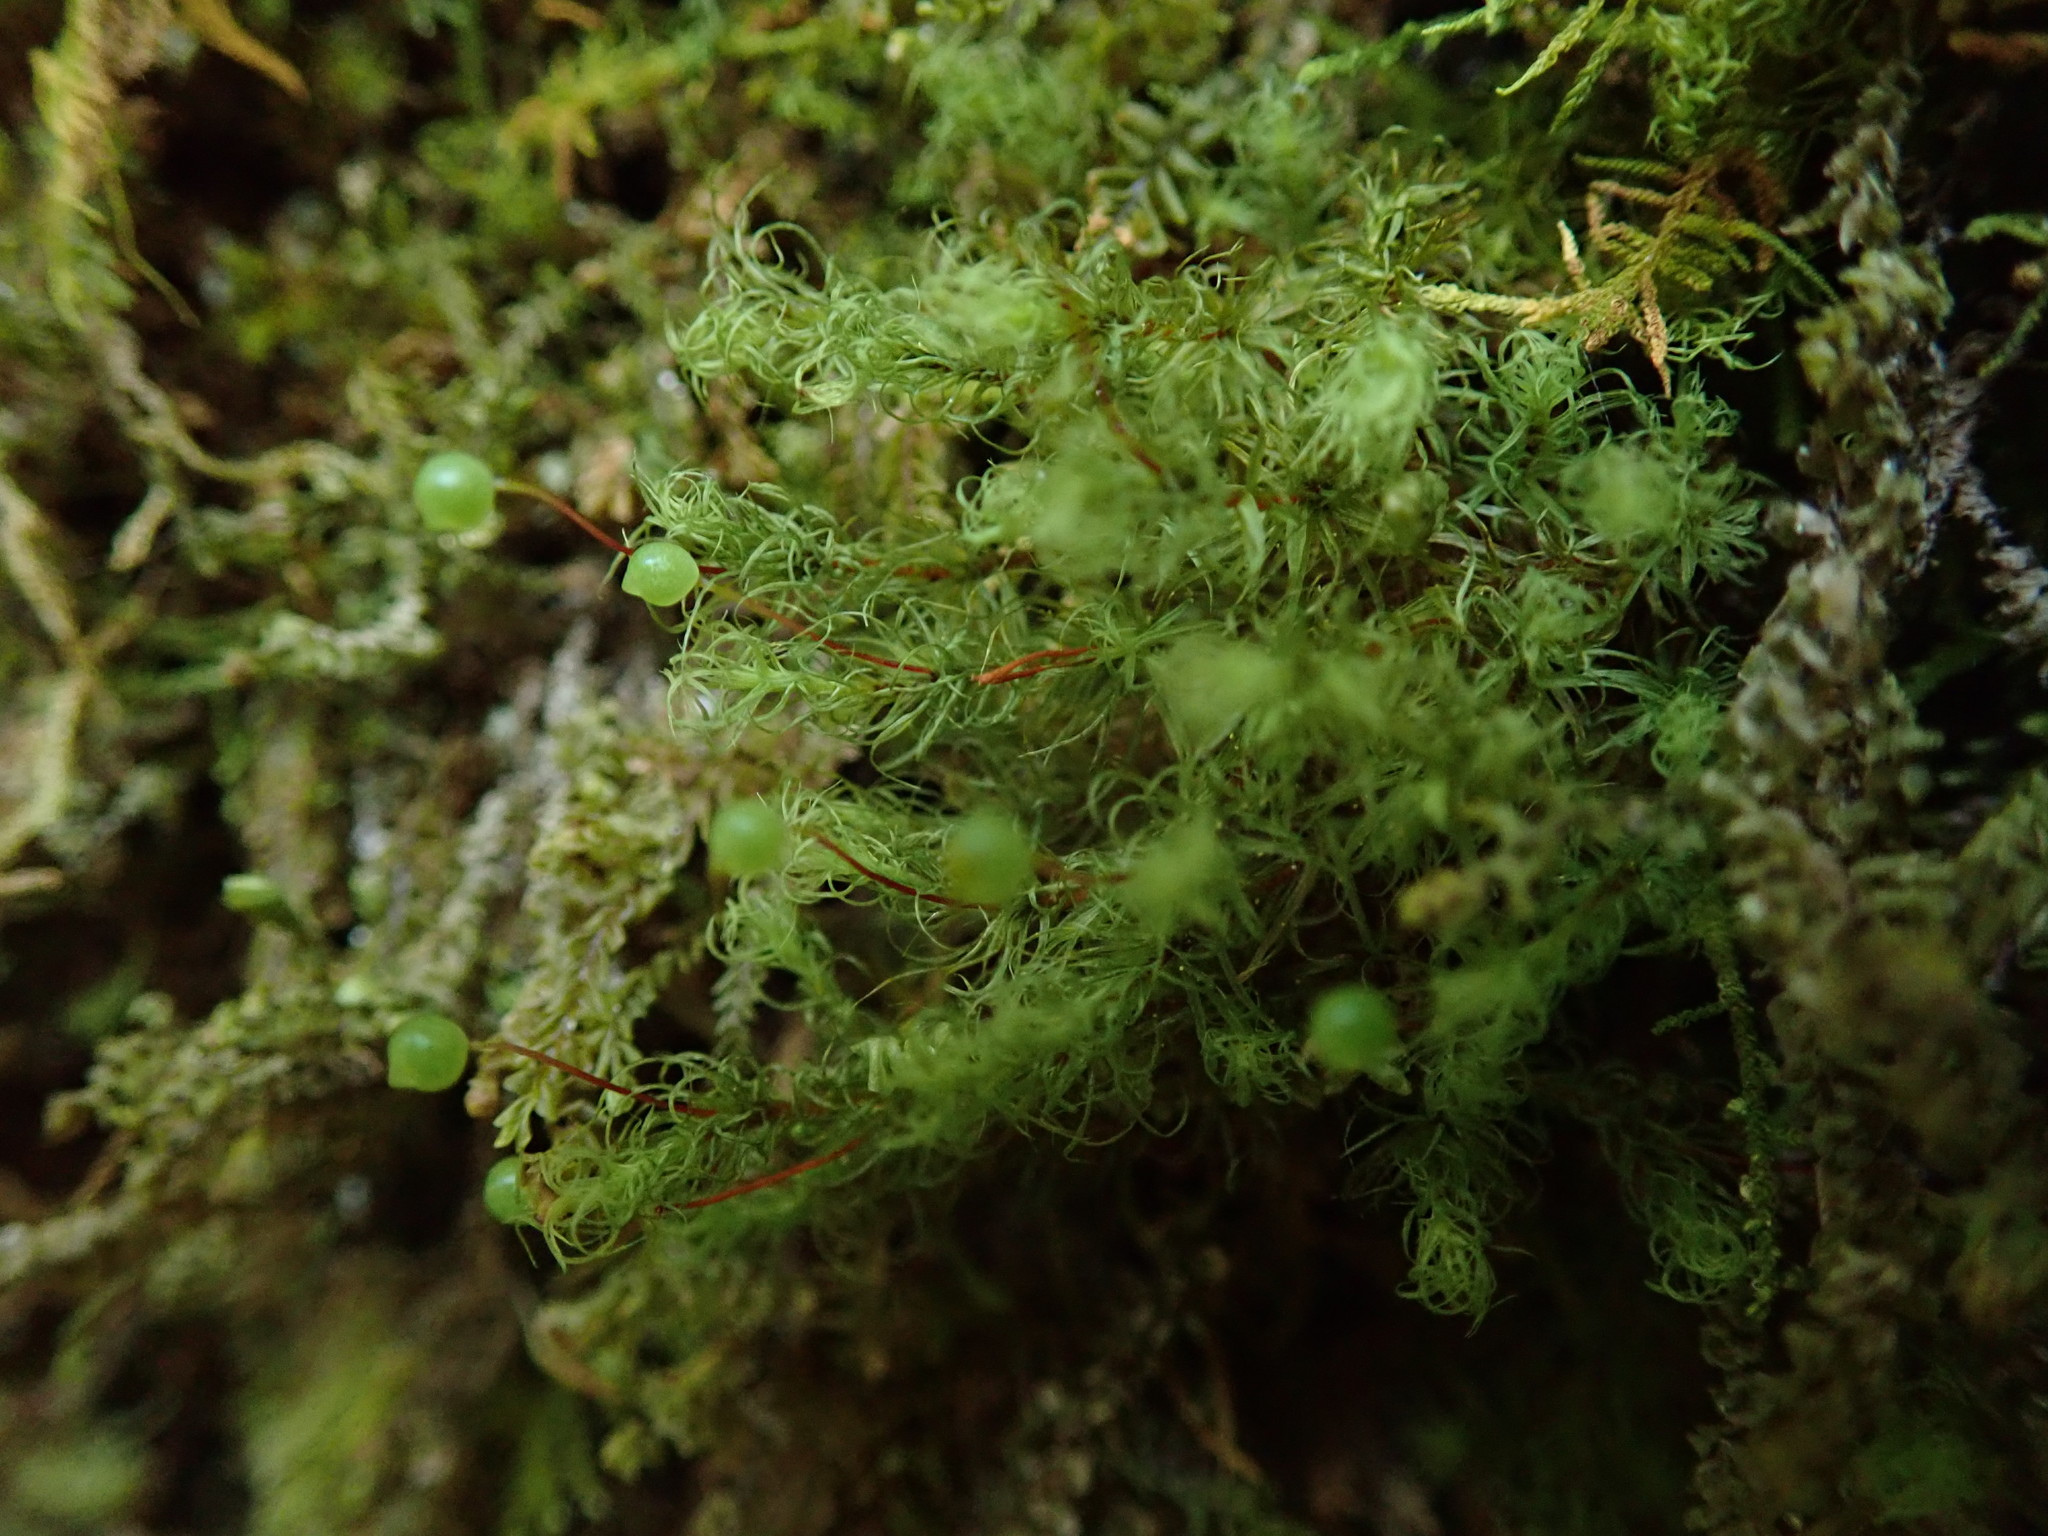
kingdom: Plantae
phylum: Bryophyta
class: Bryopsida
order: Bartramiales
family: Bartramiaceae
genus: Bartramia
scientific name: Bartramia ithyphylla
